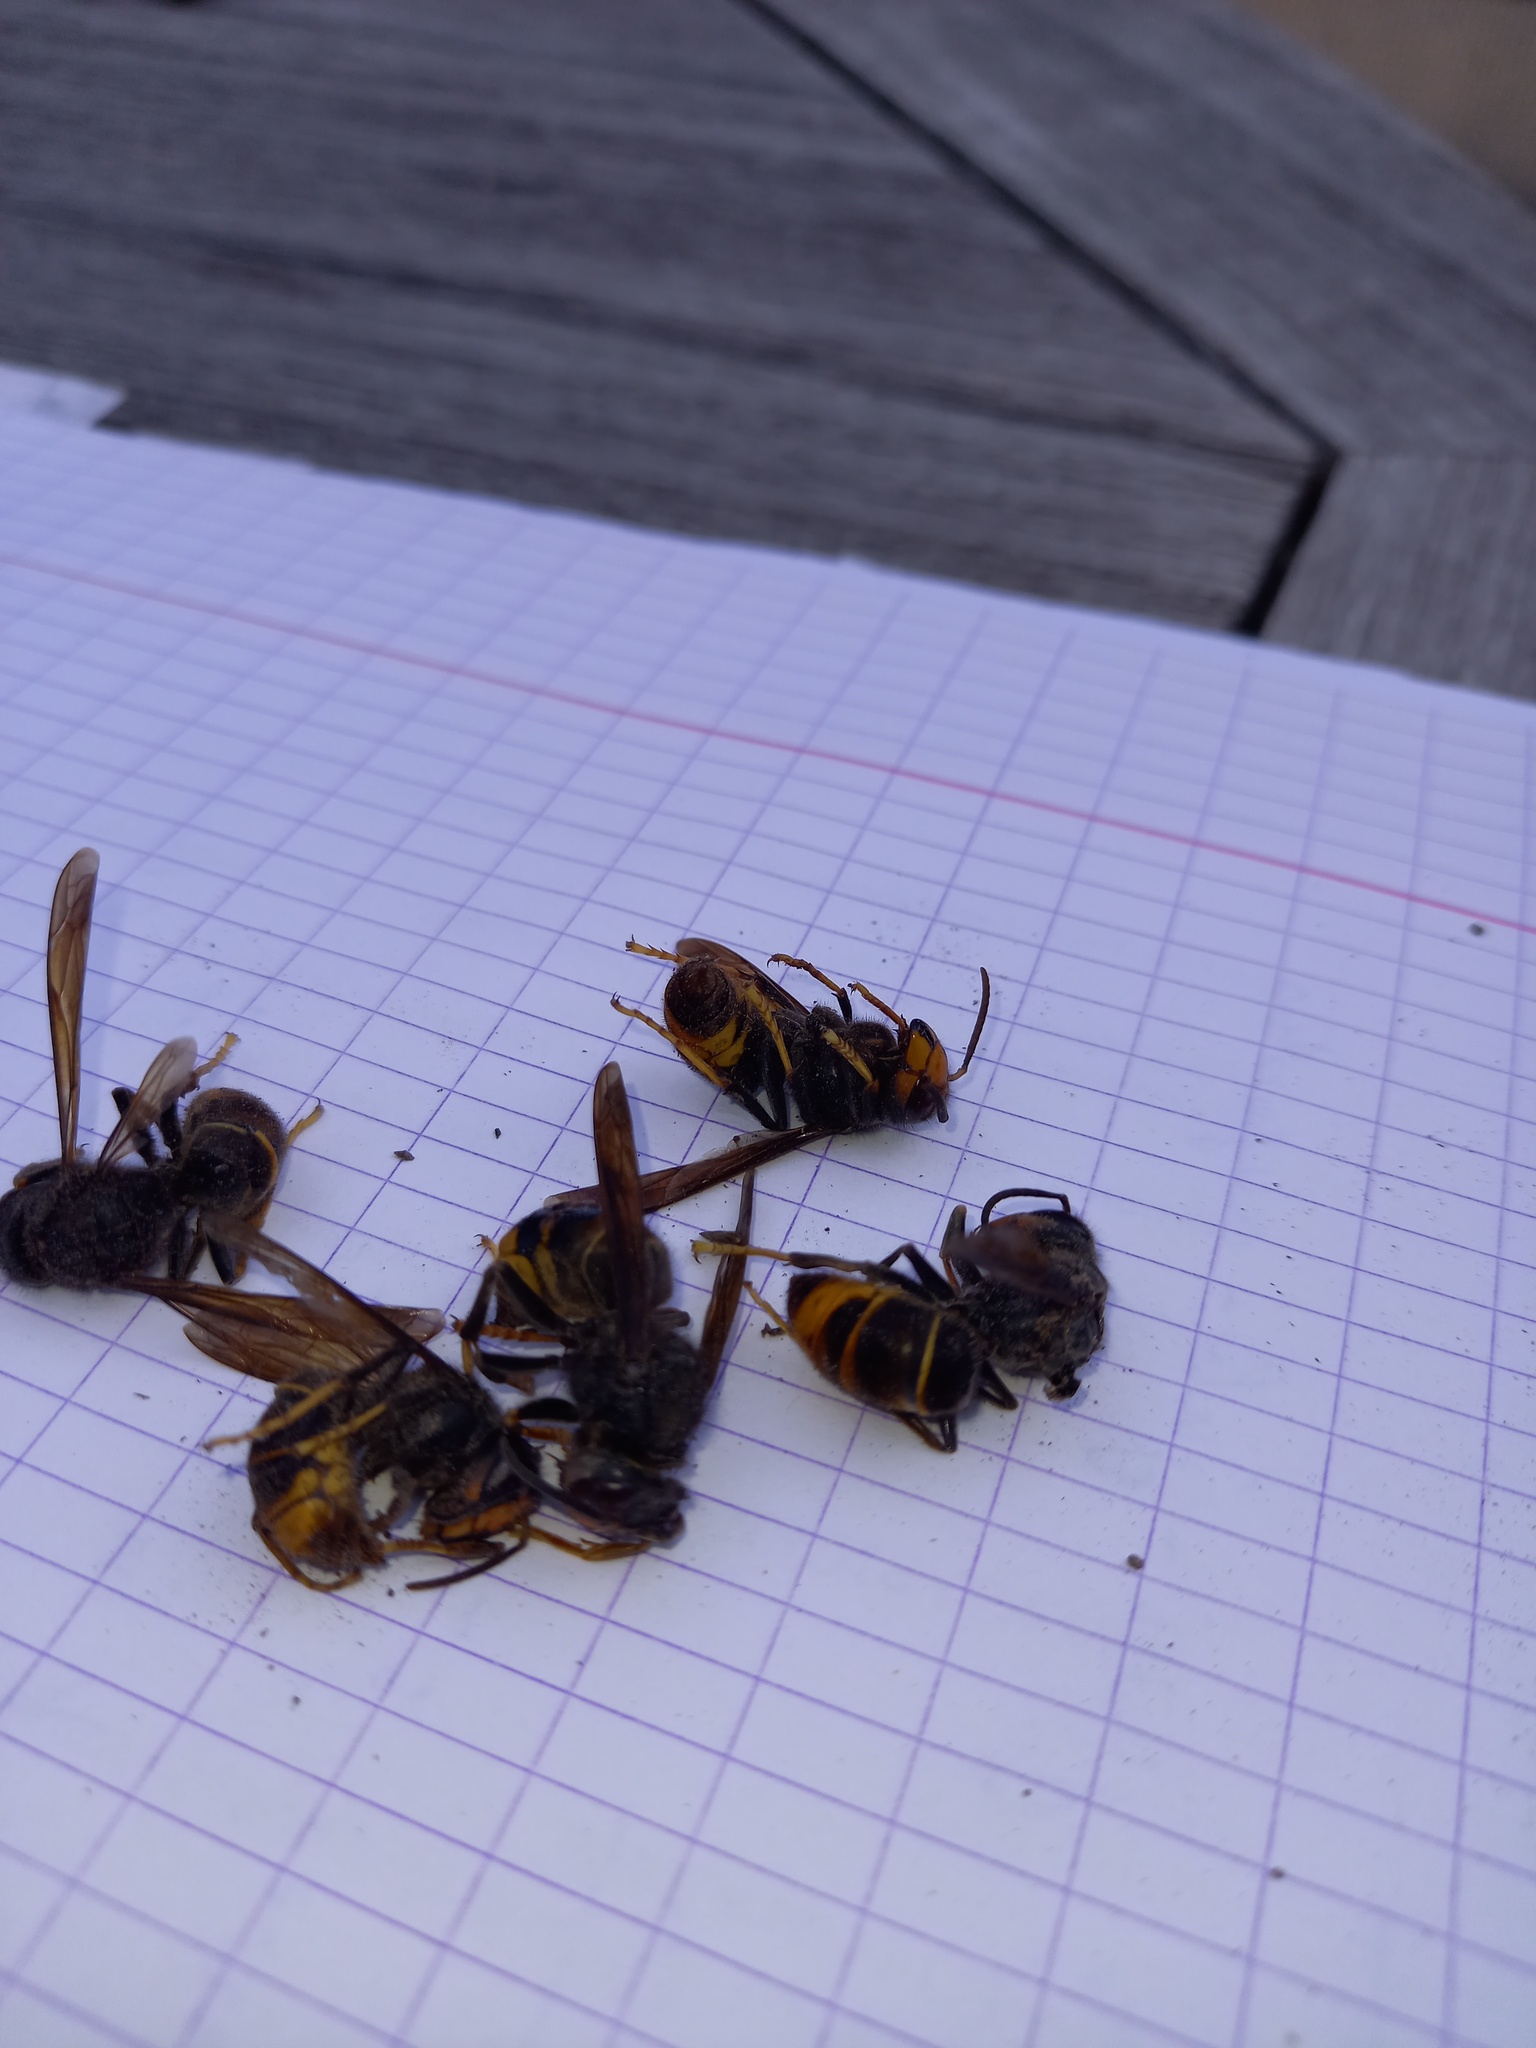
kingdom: Animalia
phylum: Arthropoda
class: Insecta
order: Hymenoptera
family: Vespidae
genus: Vespa
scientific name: Vespa velutina
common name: Asian hornet
